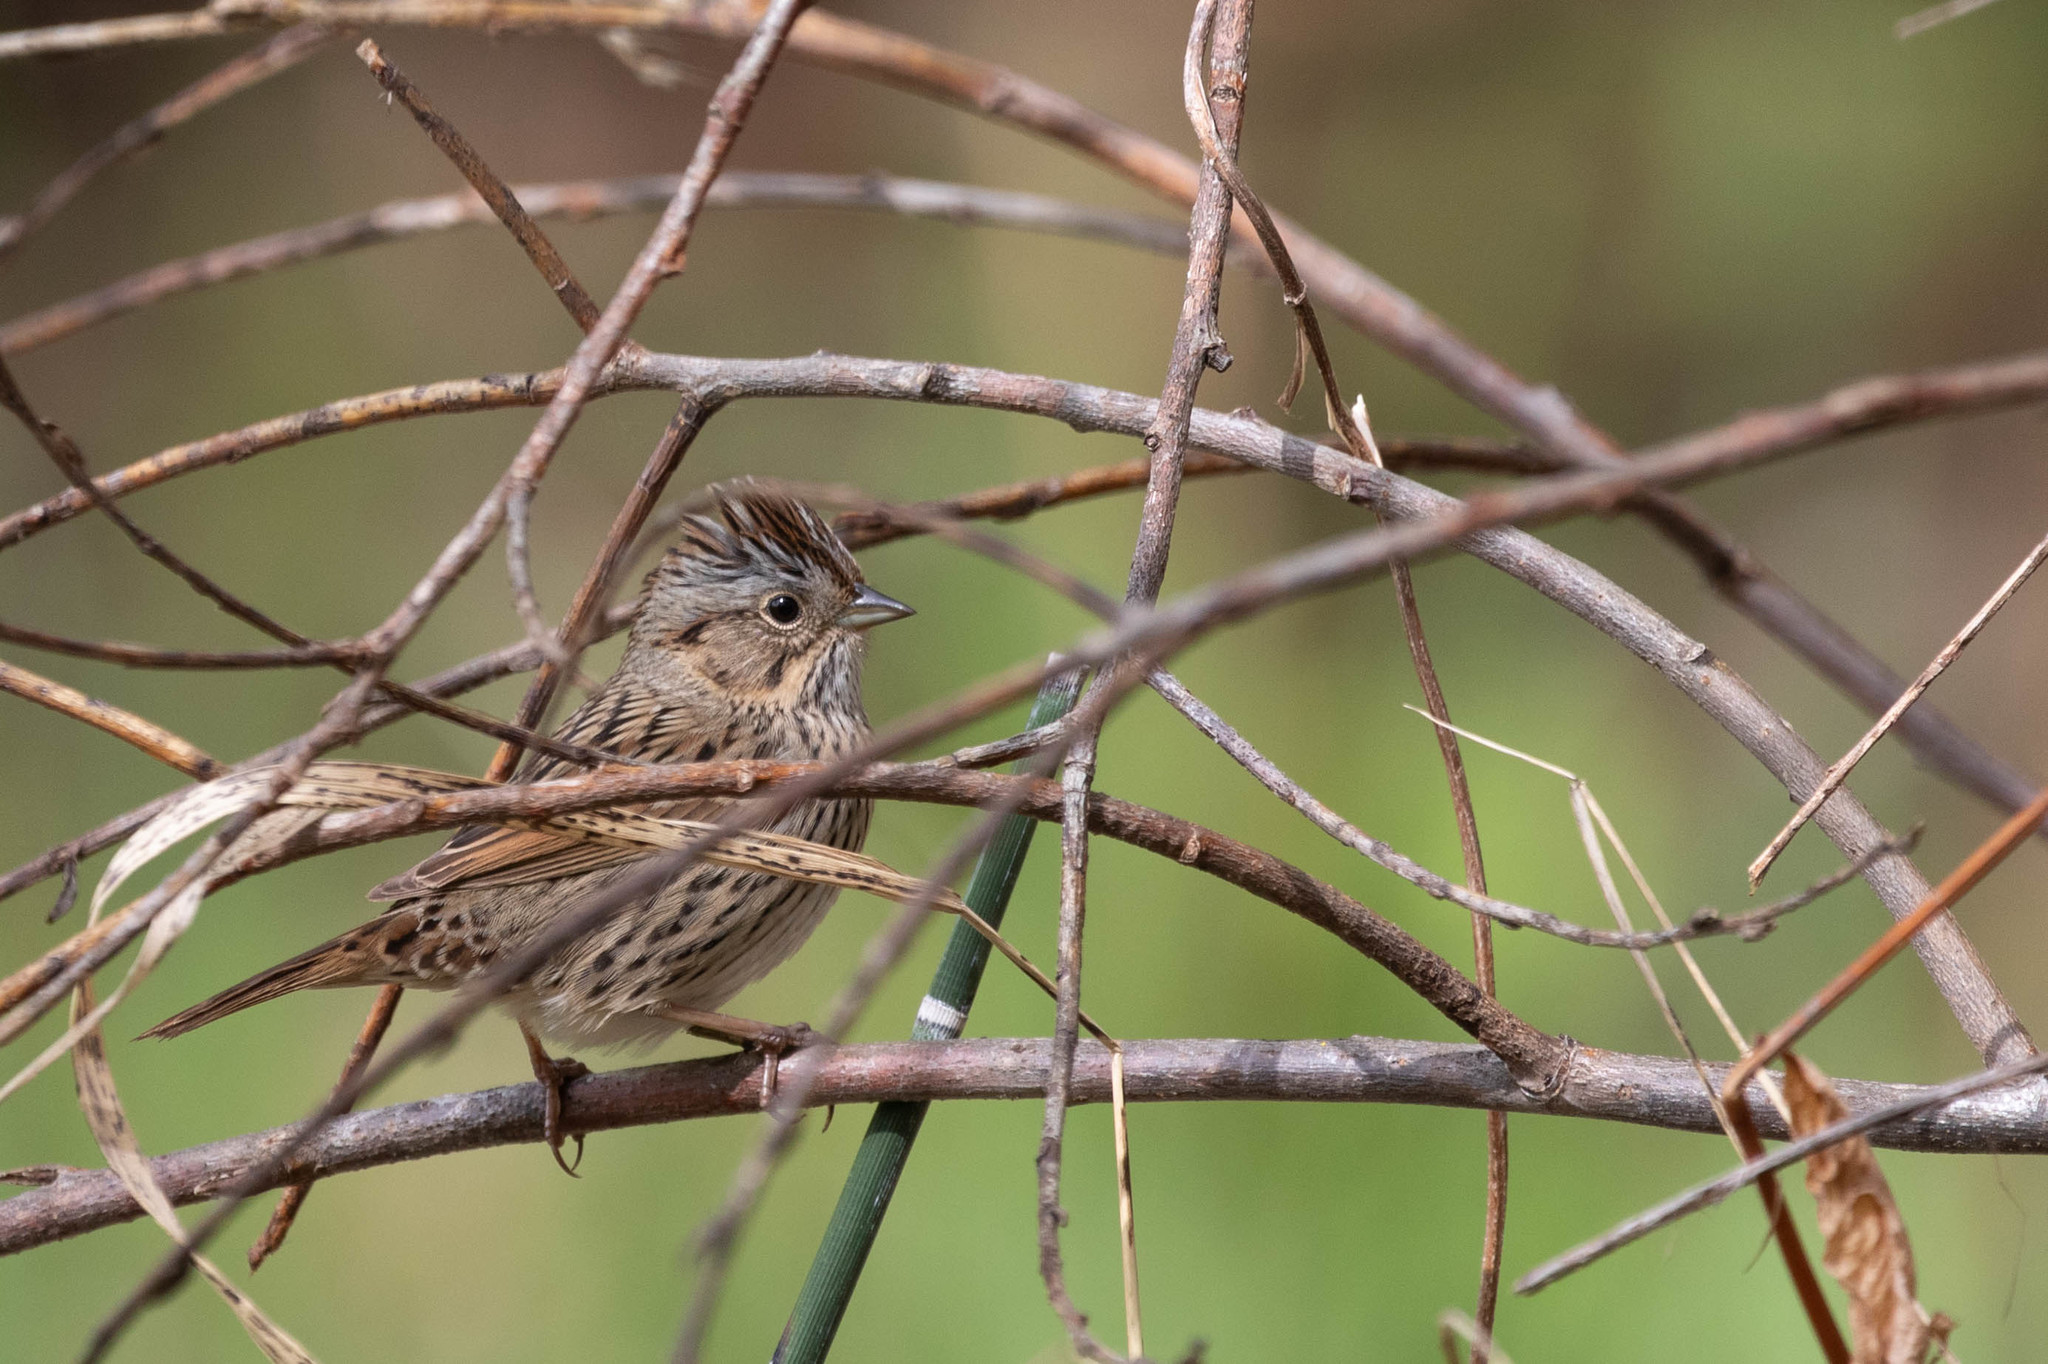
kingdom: Animalia
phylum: Chordata
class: Aves
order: Passeriformes
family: Passerellidae
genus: Melospiza
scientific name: Melospiza lincolnii
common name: Lincoln's sparrow
